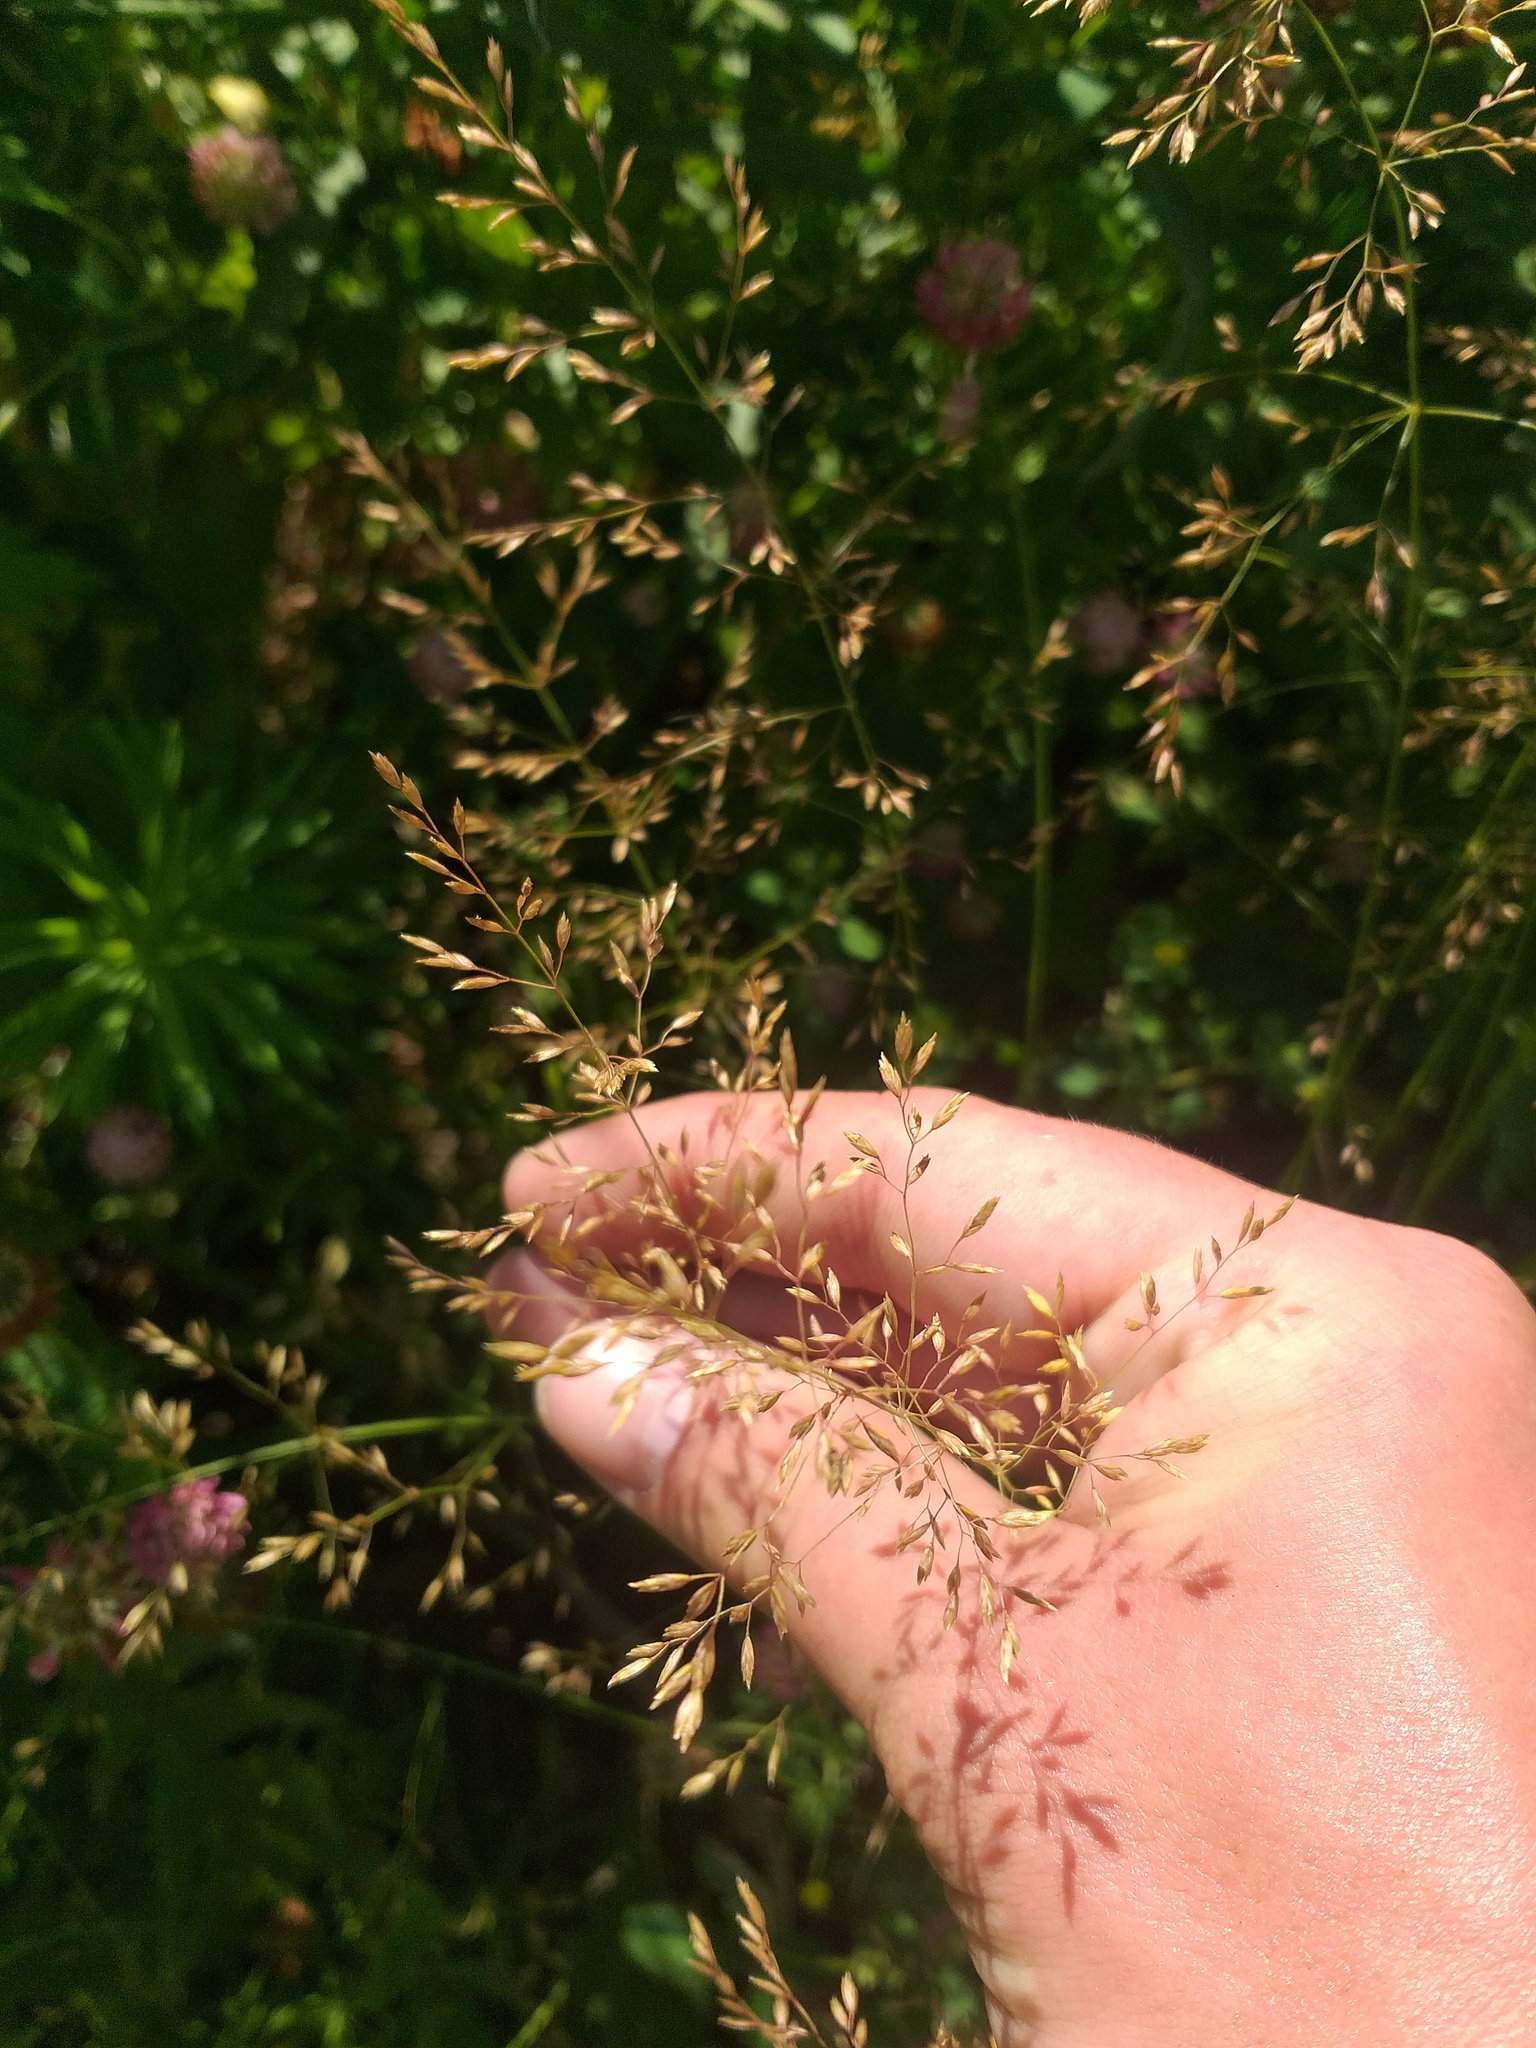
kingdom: Plantae
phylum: Tracheophyta
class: Liliopsida
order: Poales
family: Poaceae
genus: Poa
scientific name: Poa palustris
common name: Swamp meadow-grass
